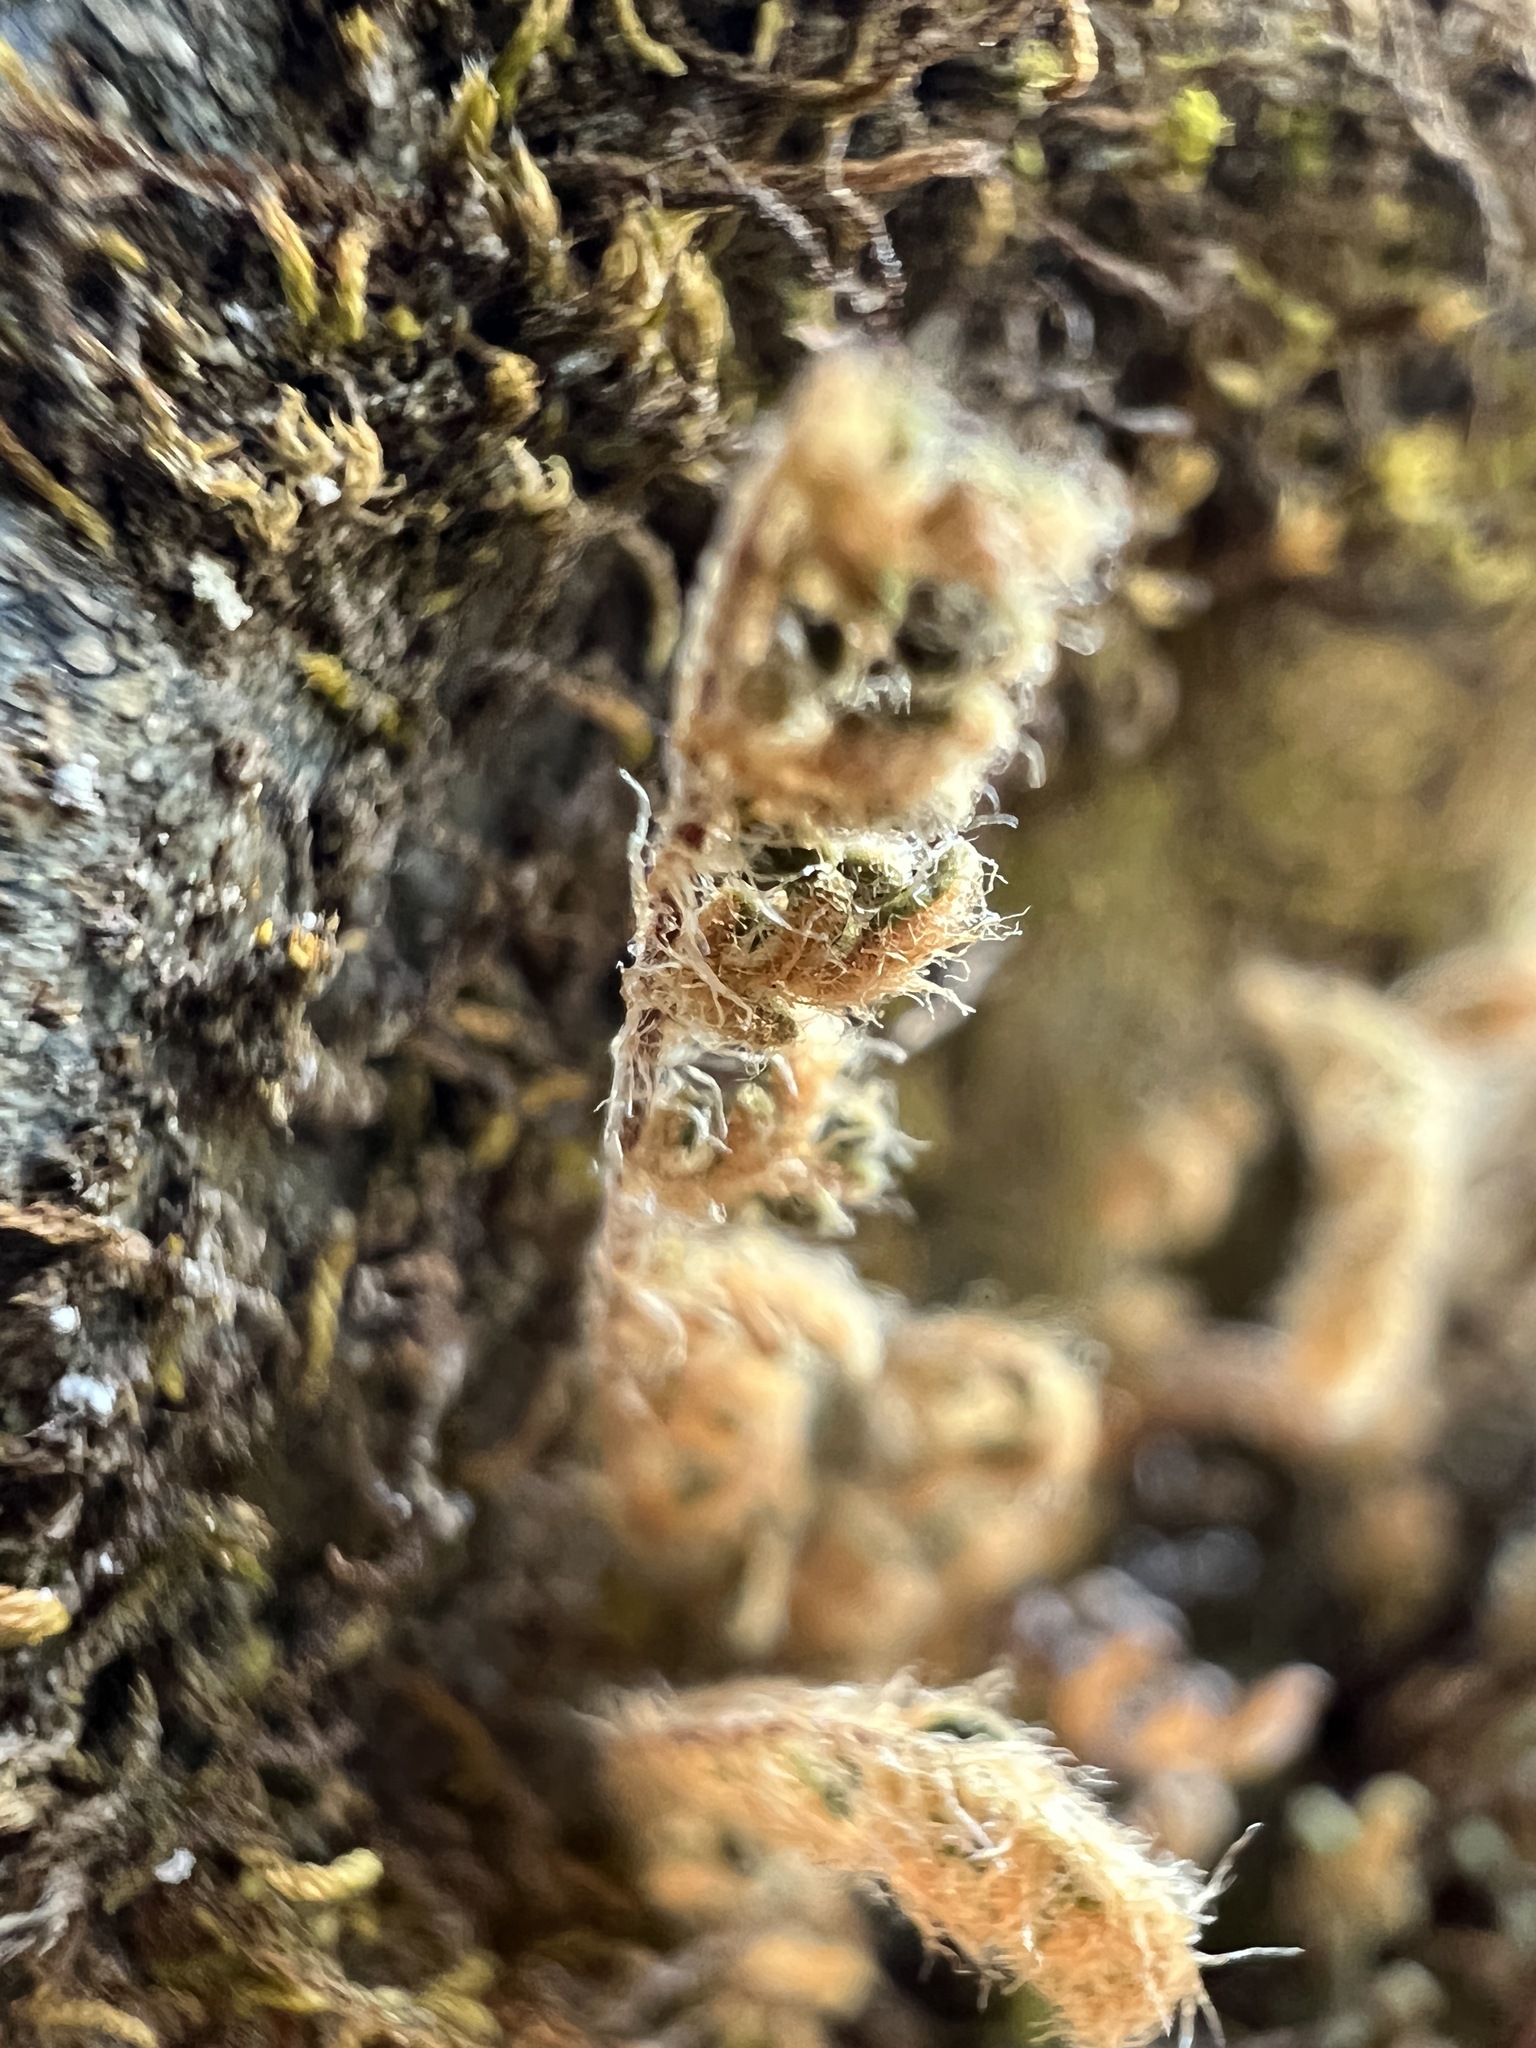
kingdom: Plantae
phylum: Tracheophyta
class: Polypodiopsida
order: Polypodiales
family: Pteridaceae
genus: Myriopteris
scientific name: Myriopteris gracillima
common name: Lace fern
